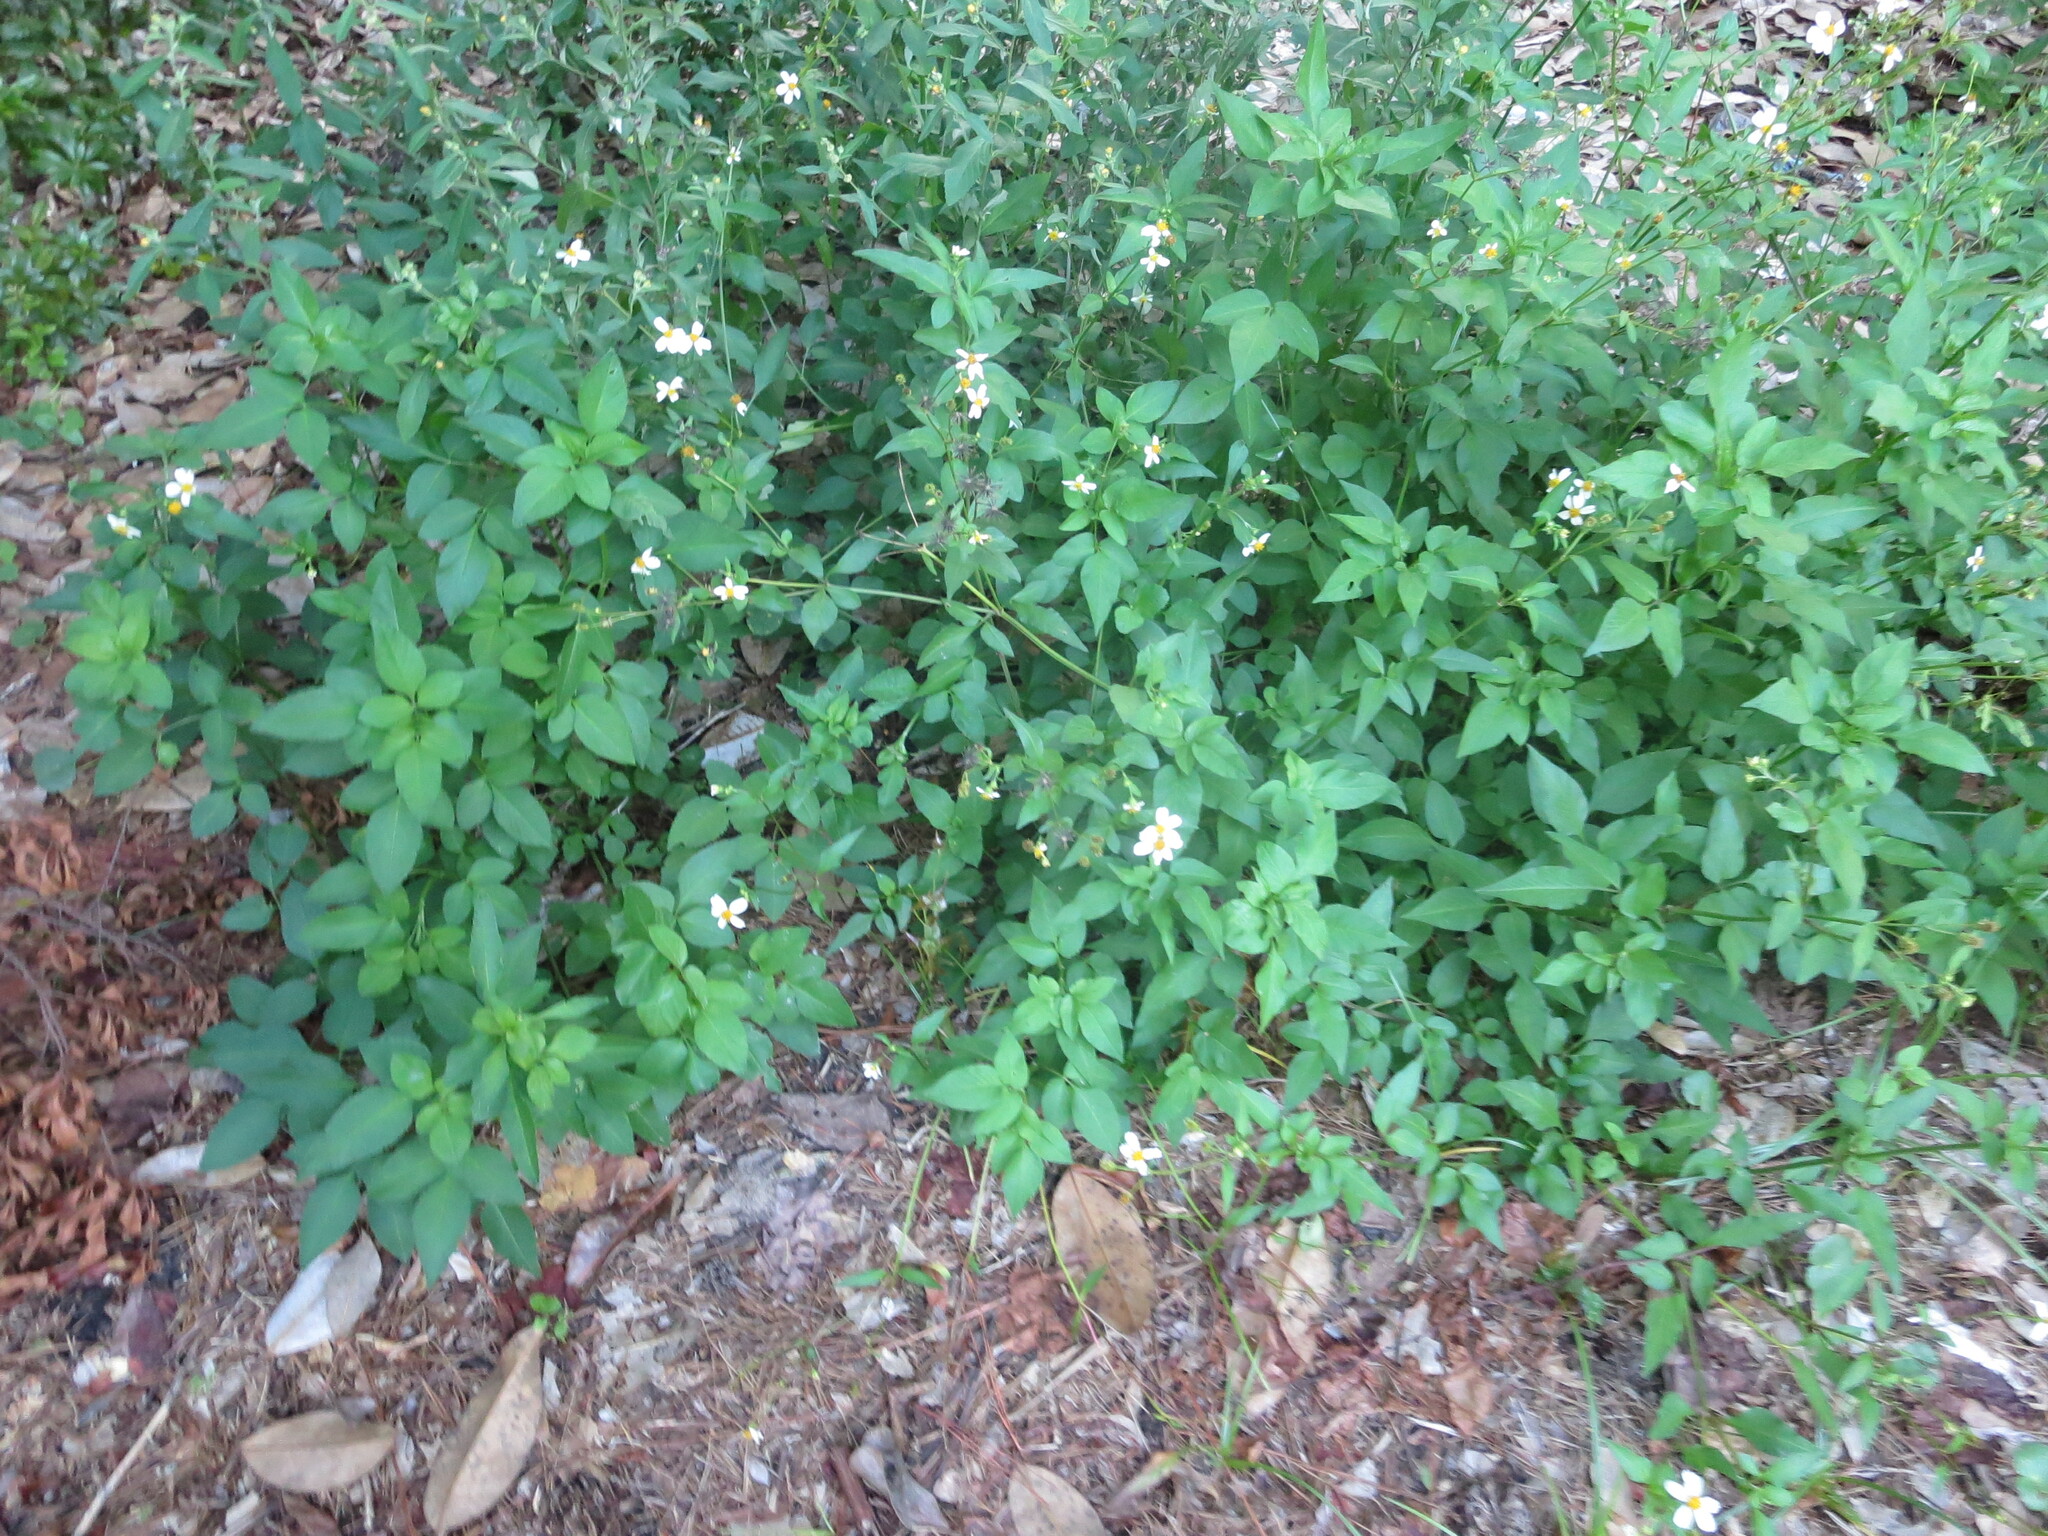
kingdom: Plantae
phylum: Tracheophyta
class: Magnoliopsida
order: Asterales
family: Asteraceae
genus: Bidens
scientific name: Bidens alba
